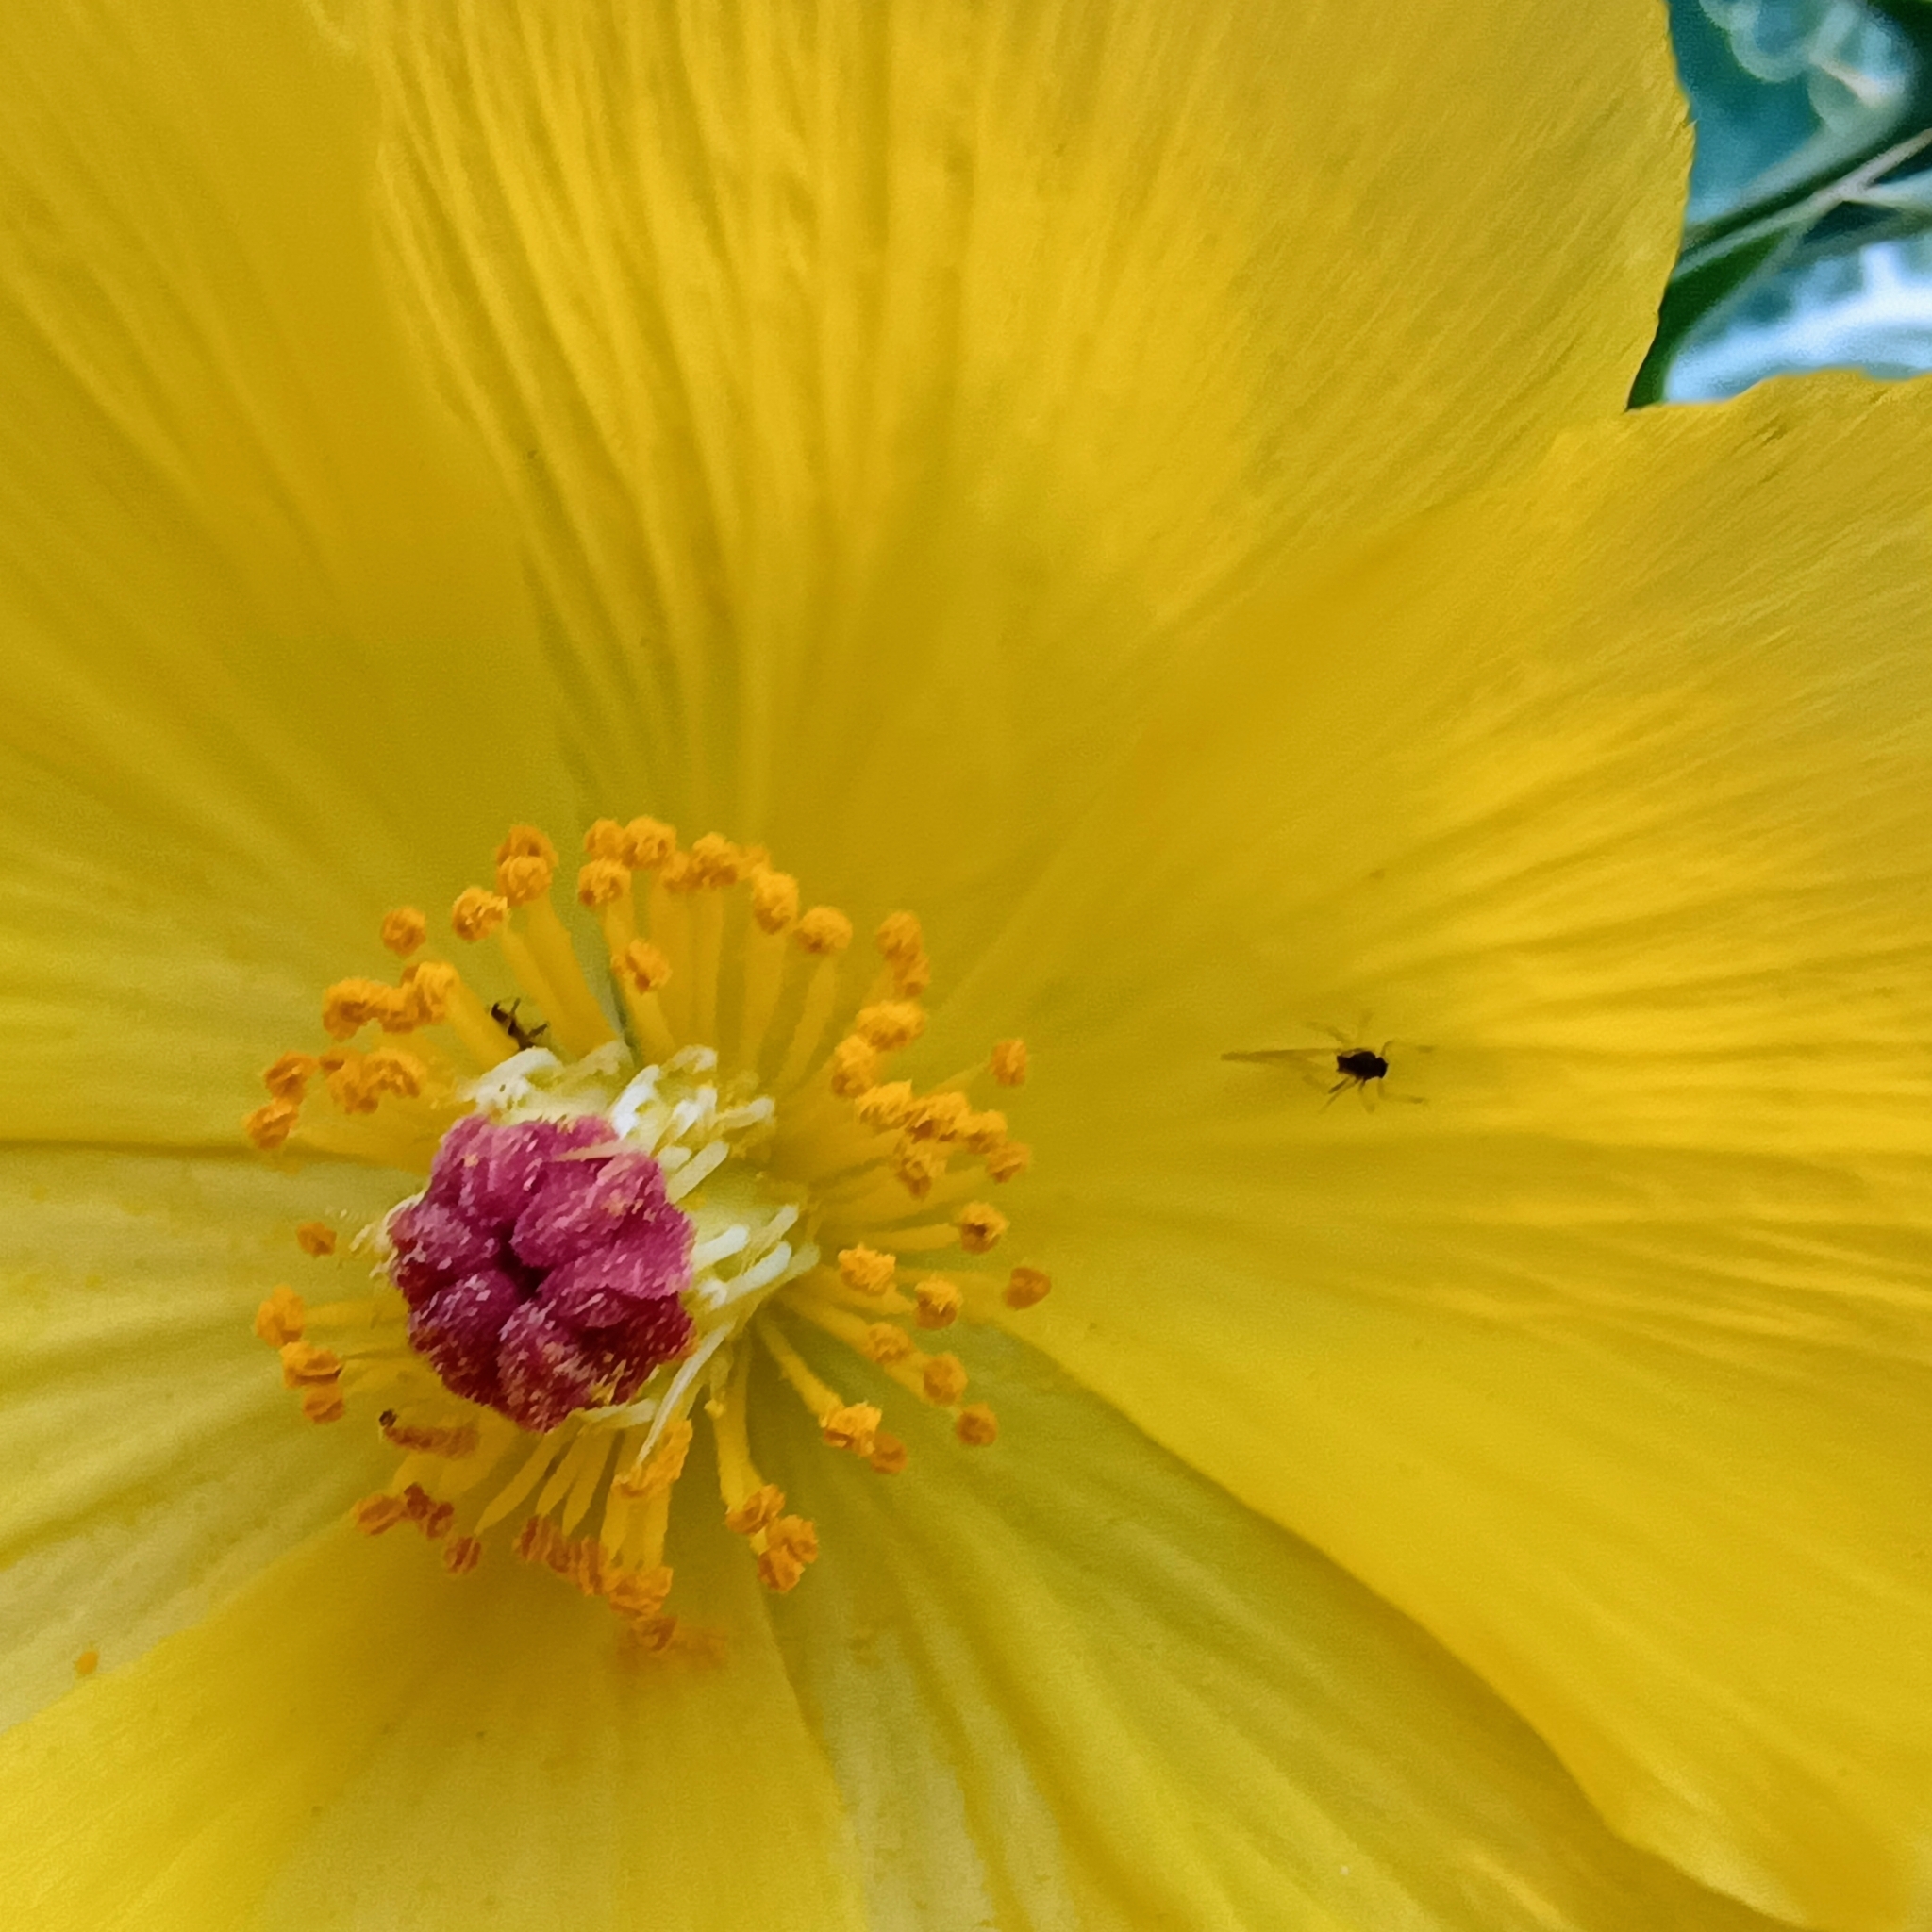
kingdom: Plantae
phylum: Tracheophyta
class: Magnoliopsida
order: Ranunculales
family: Papaveraceae
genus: Argemone
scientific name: Argemone mexicana
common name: Mexican poppy
